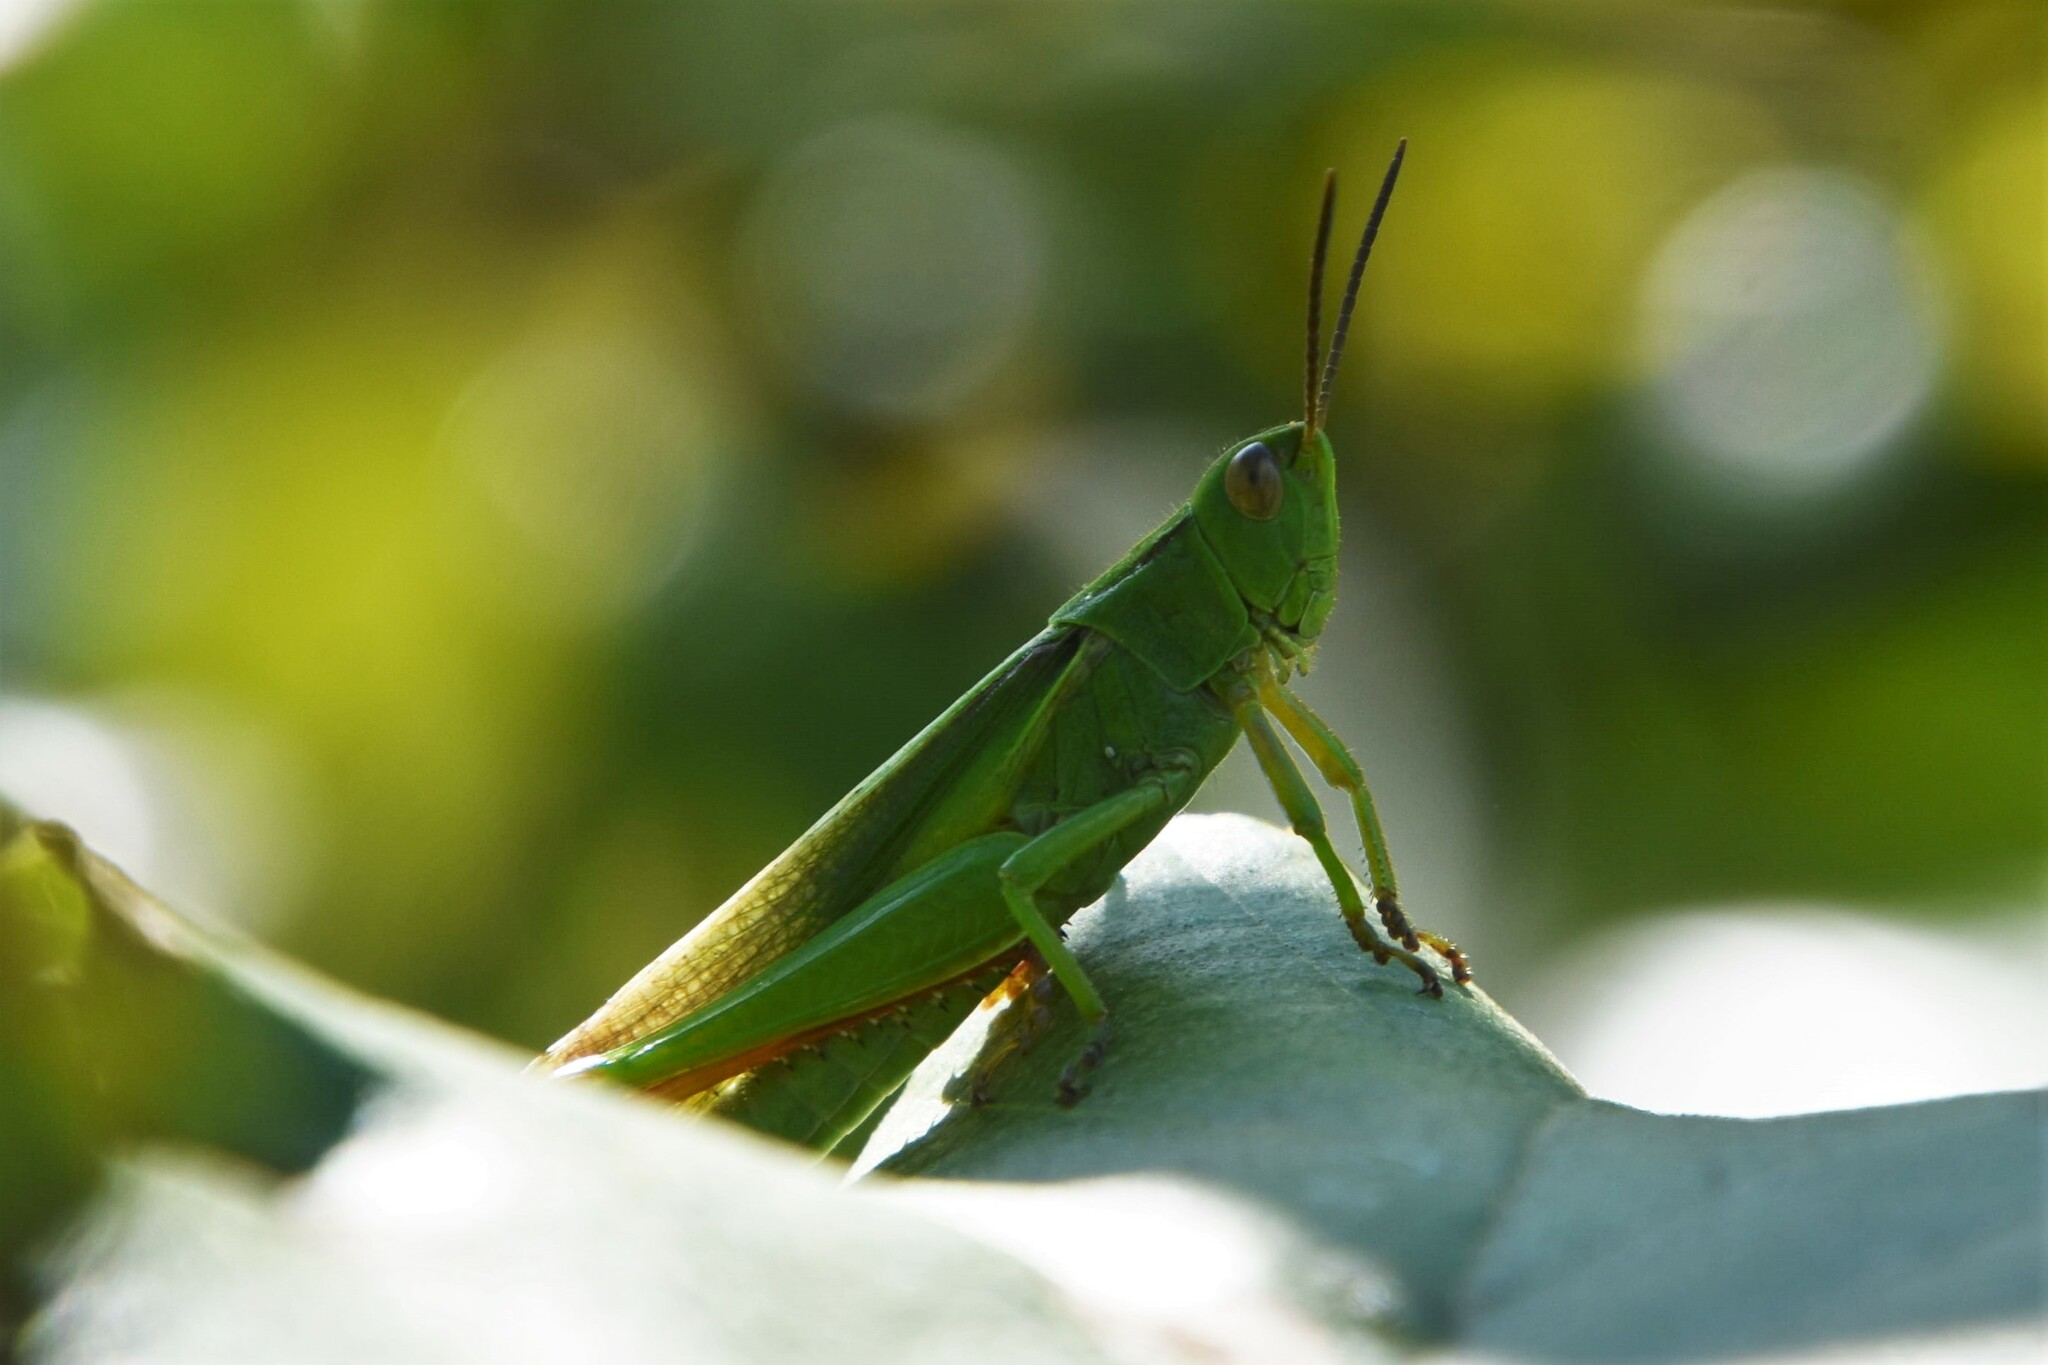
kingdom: Animalia
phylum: Arthropoda
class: Insecta
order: Orthoptera
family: Acrididae
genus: Paracinema
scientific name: Paracinema tricolor
